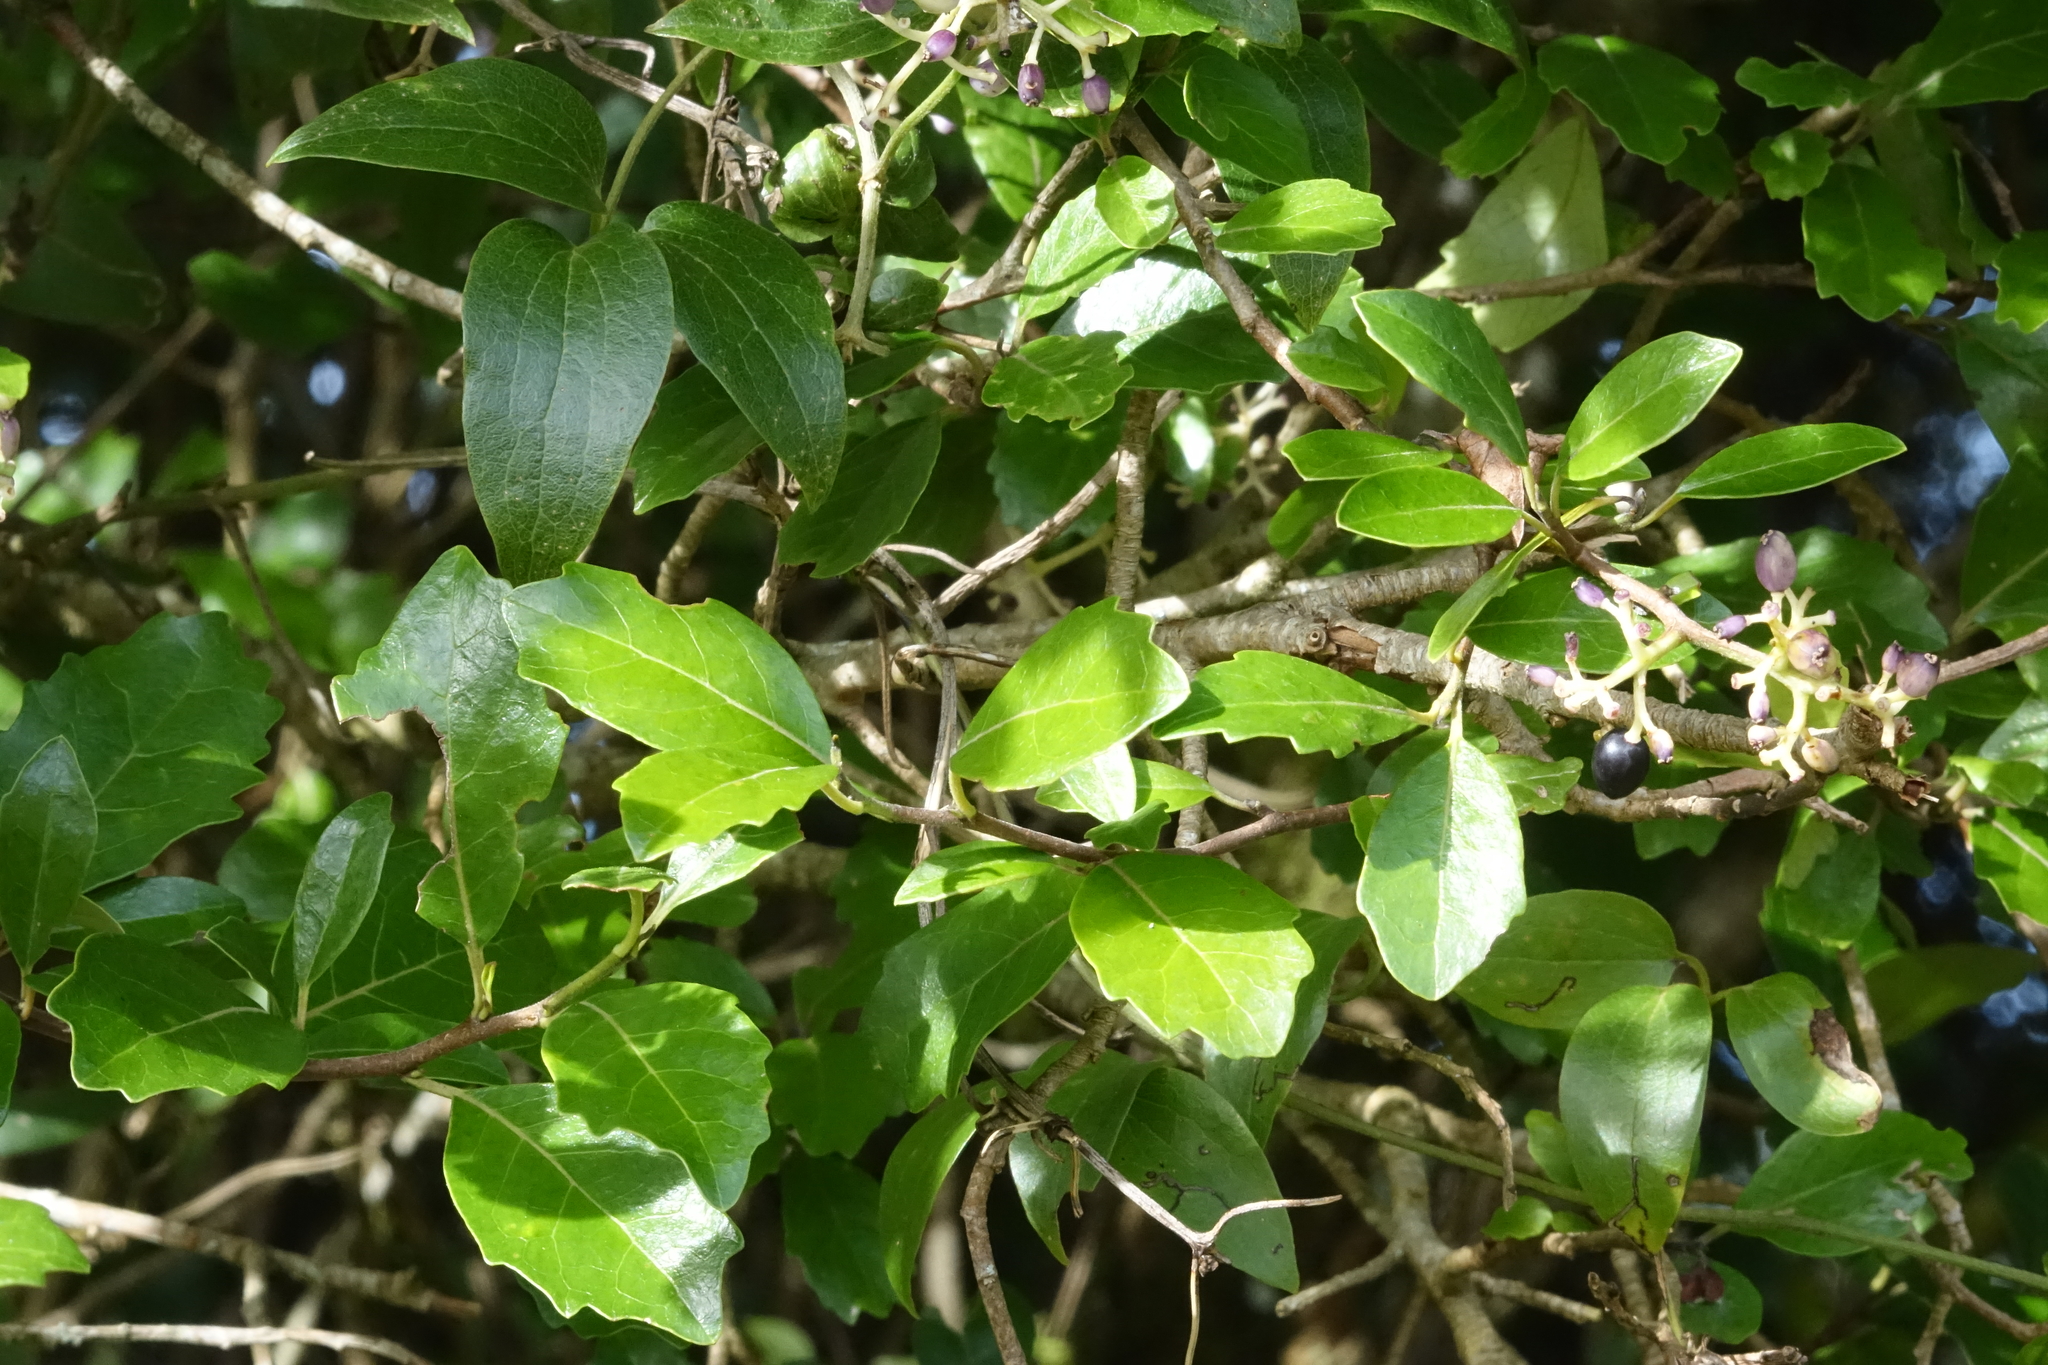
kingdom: Plantae
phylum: Tracheophyta
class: Magnoliopsida
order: Apiales
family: Pennantiaceae
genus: Pennantia
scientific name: Pennantia corymbosa
